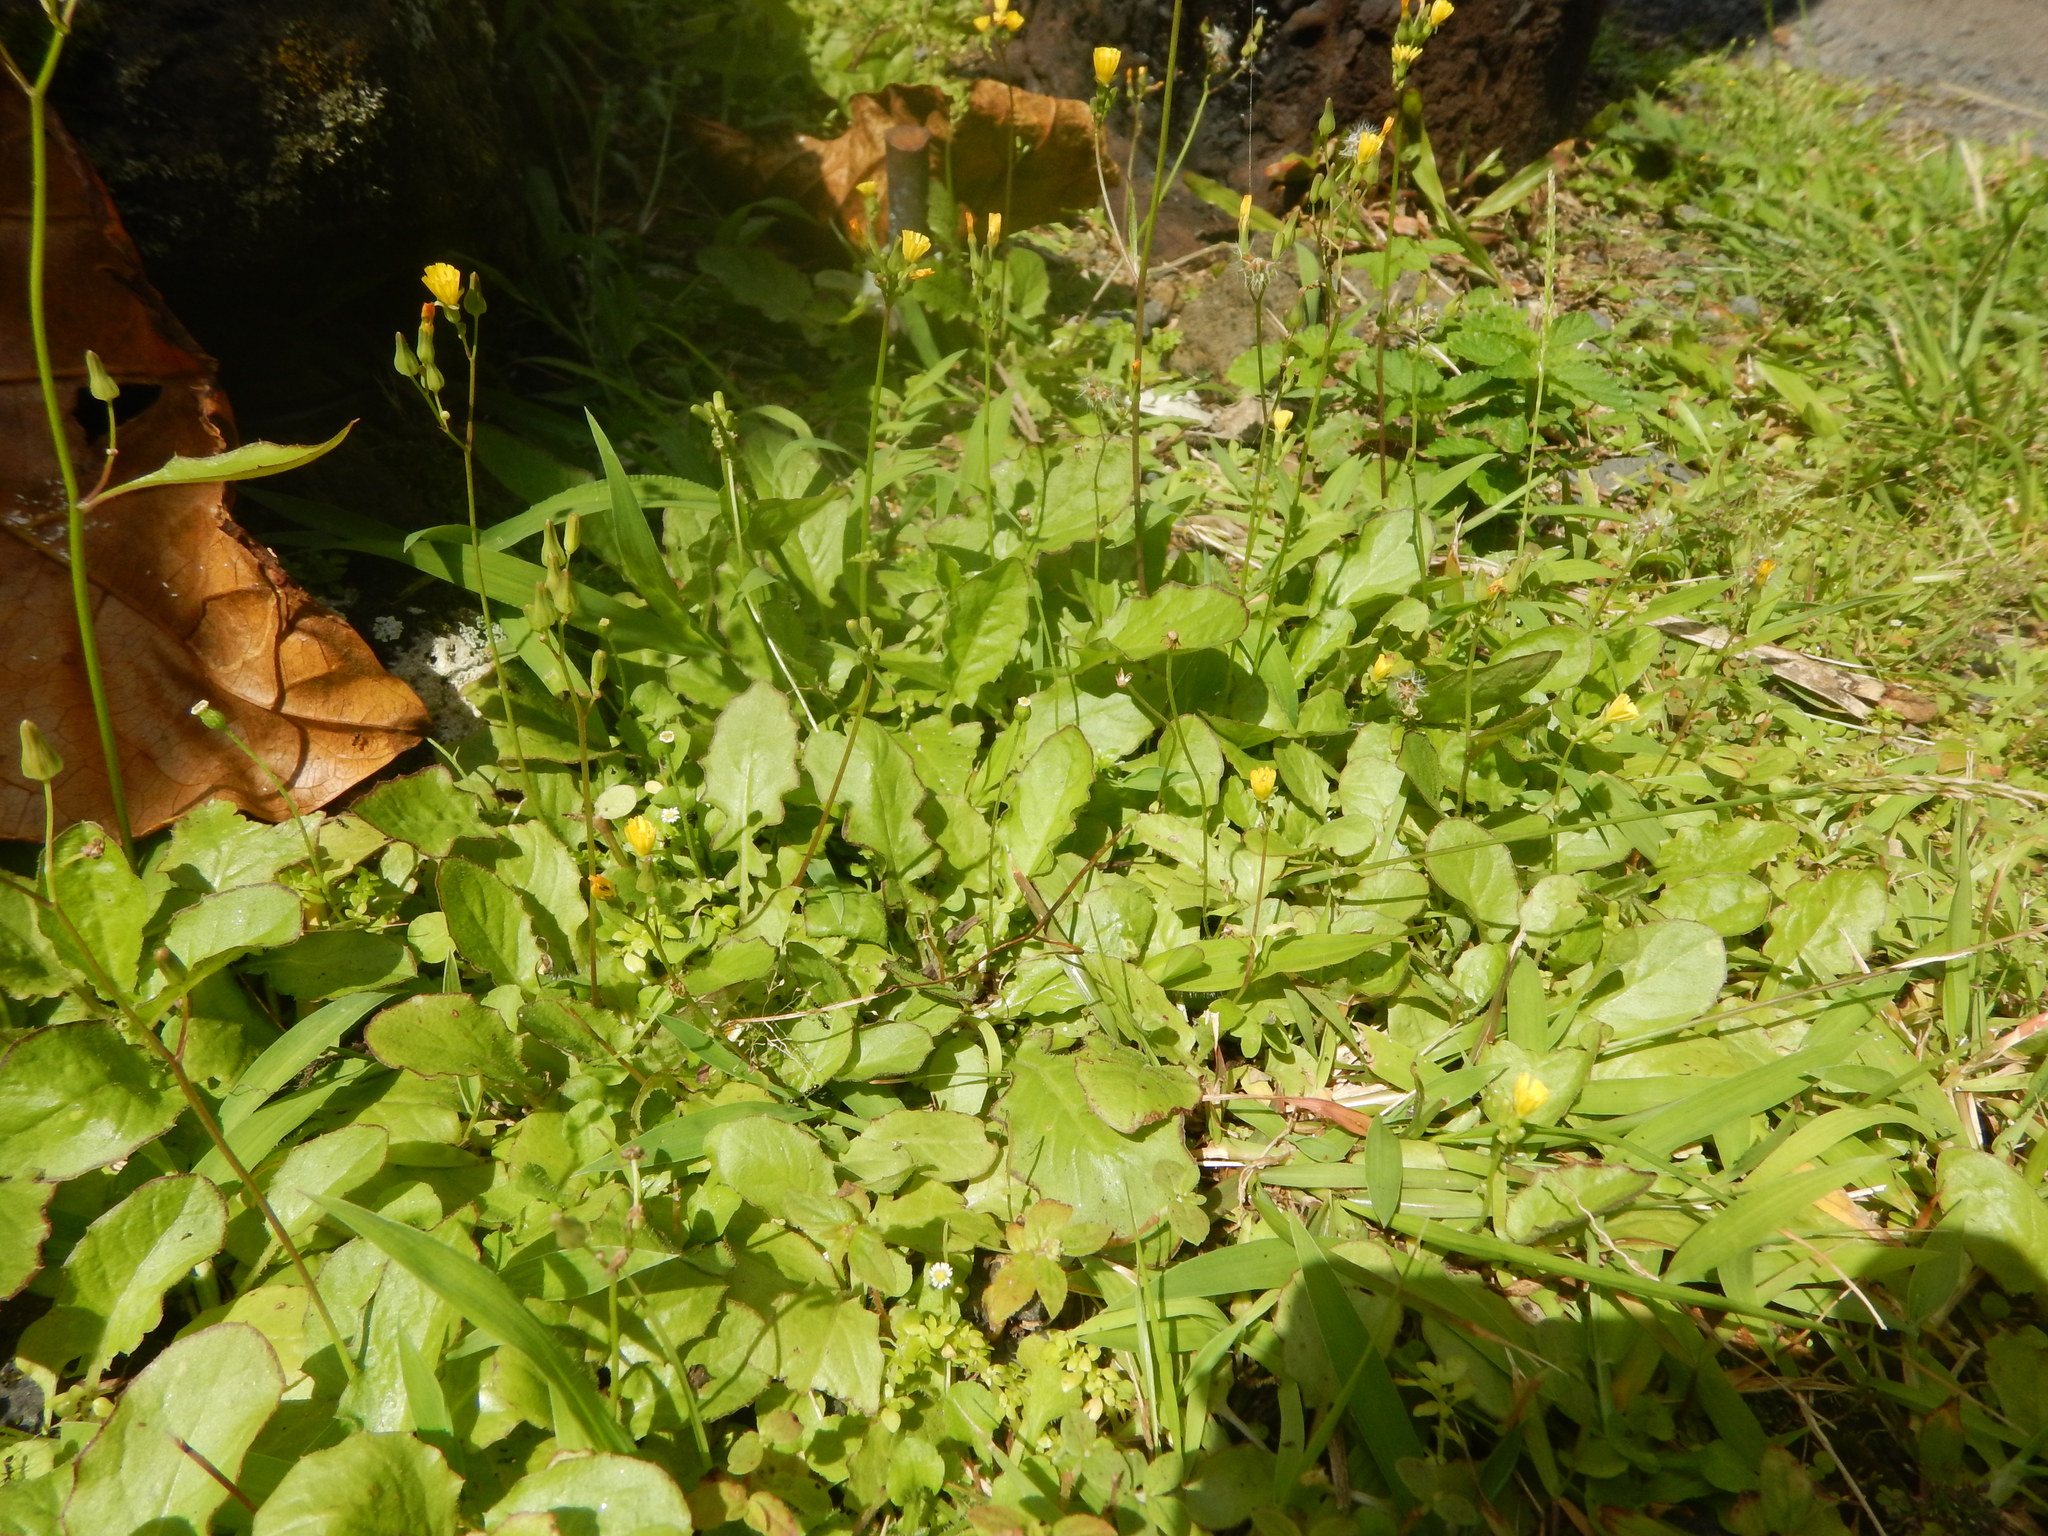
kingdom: Plantae
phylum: Tracheophyta
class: Magnoliopsida
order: Asterales
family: Asteraceae
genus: Youngia
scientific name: Youngia japonica
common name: Oriental false hawksbeard
